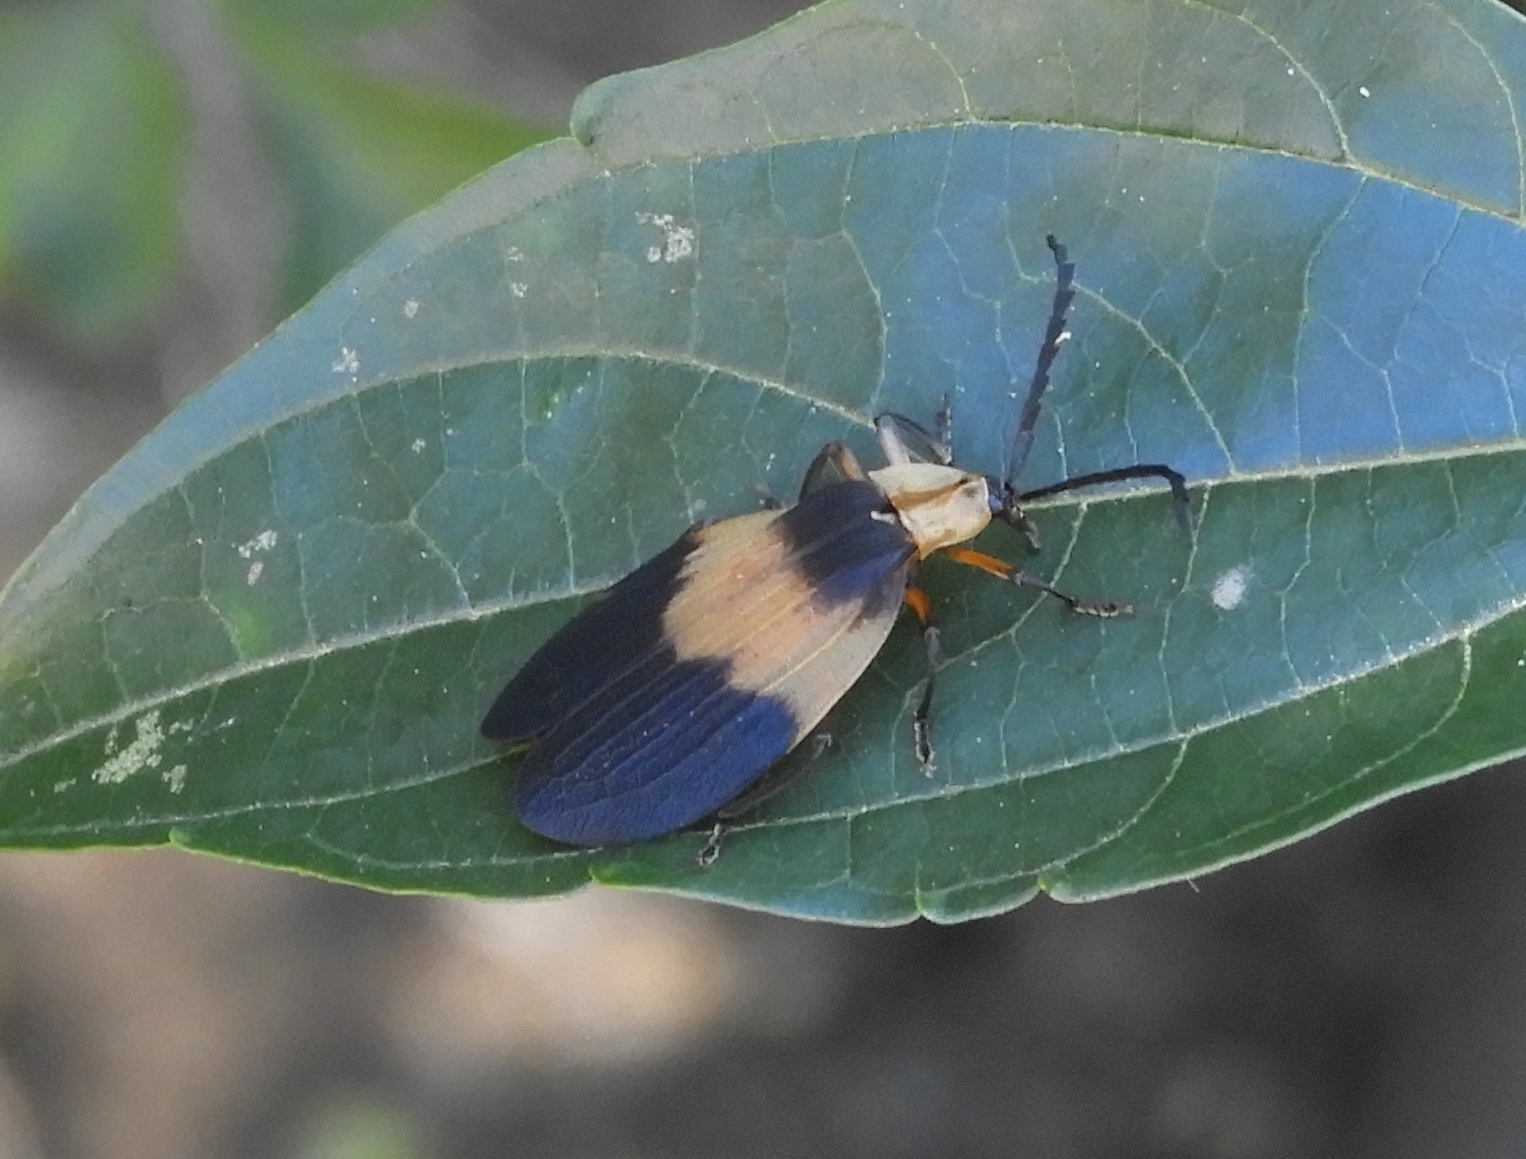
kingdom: Animalia
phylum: Arthropoda
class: Insecta
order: Coleoptera
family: Lycidae
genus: Lycus
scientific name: Lycus
